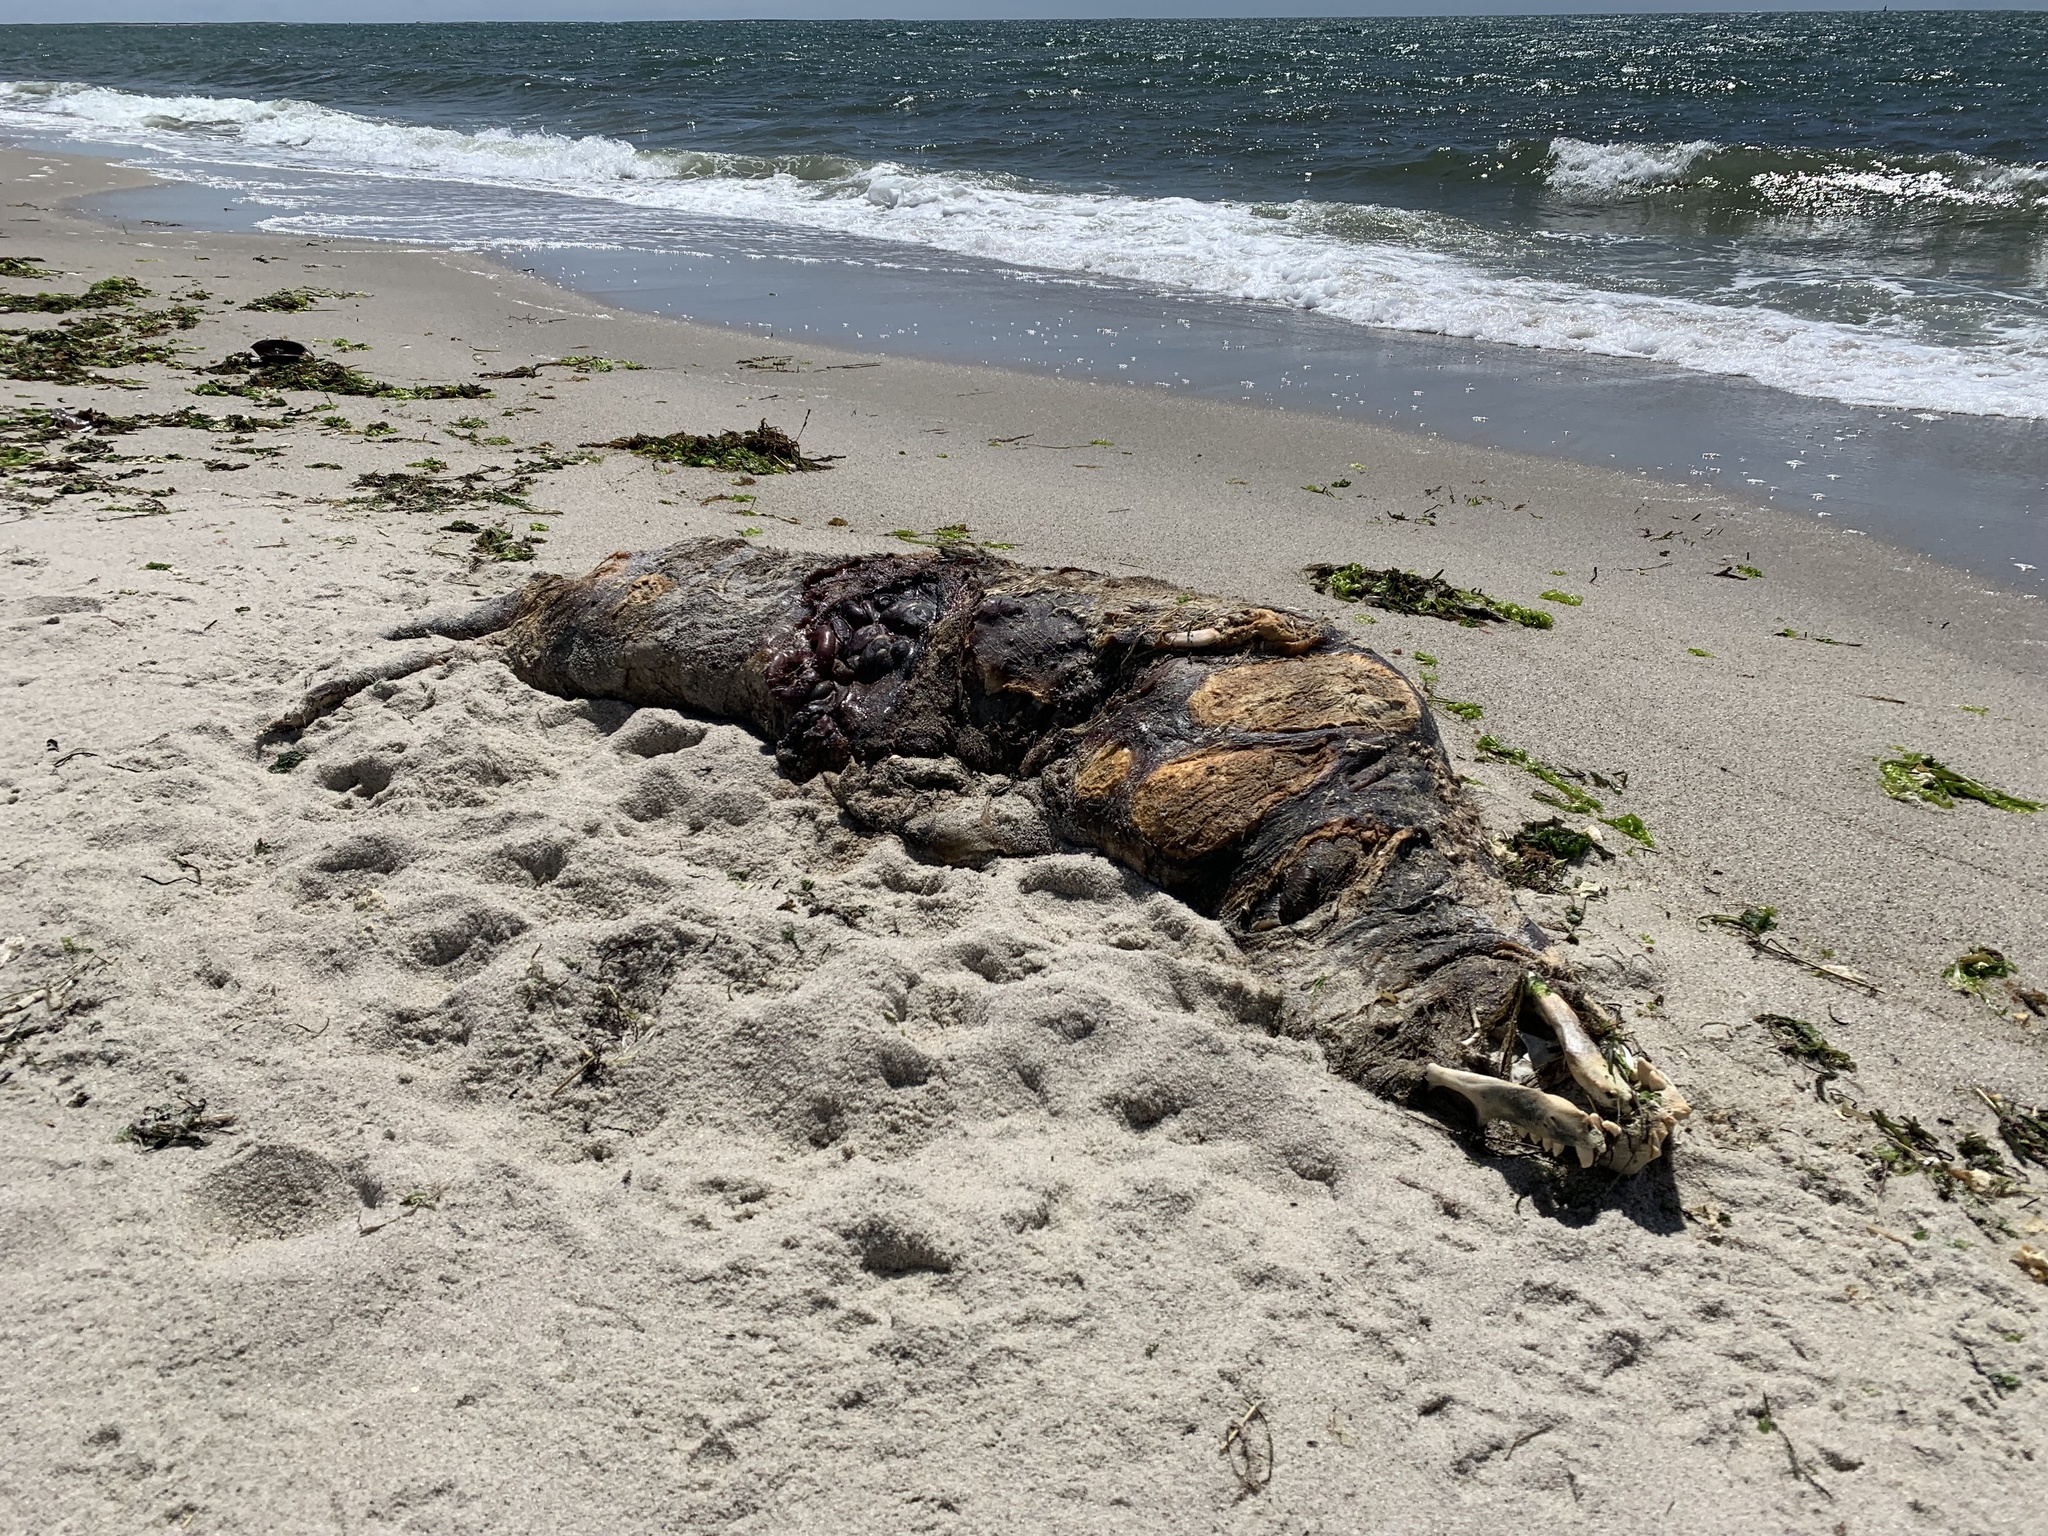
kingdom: Animalia
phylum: Chordata
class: Mammalia
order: Carnivora
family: Phocidae
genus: Halichoerus
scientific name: Halichoerus grypus
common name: Grey seal
